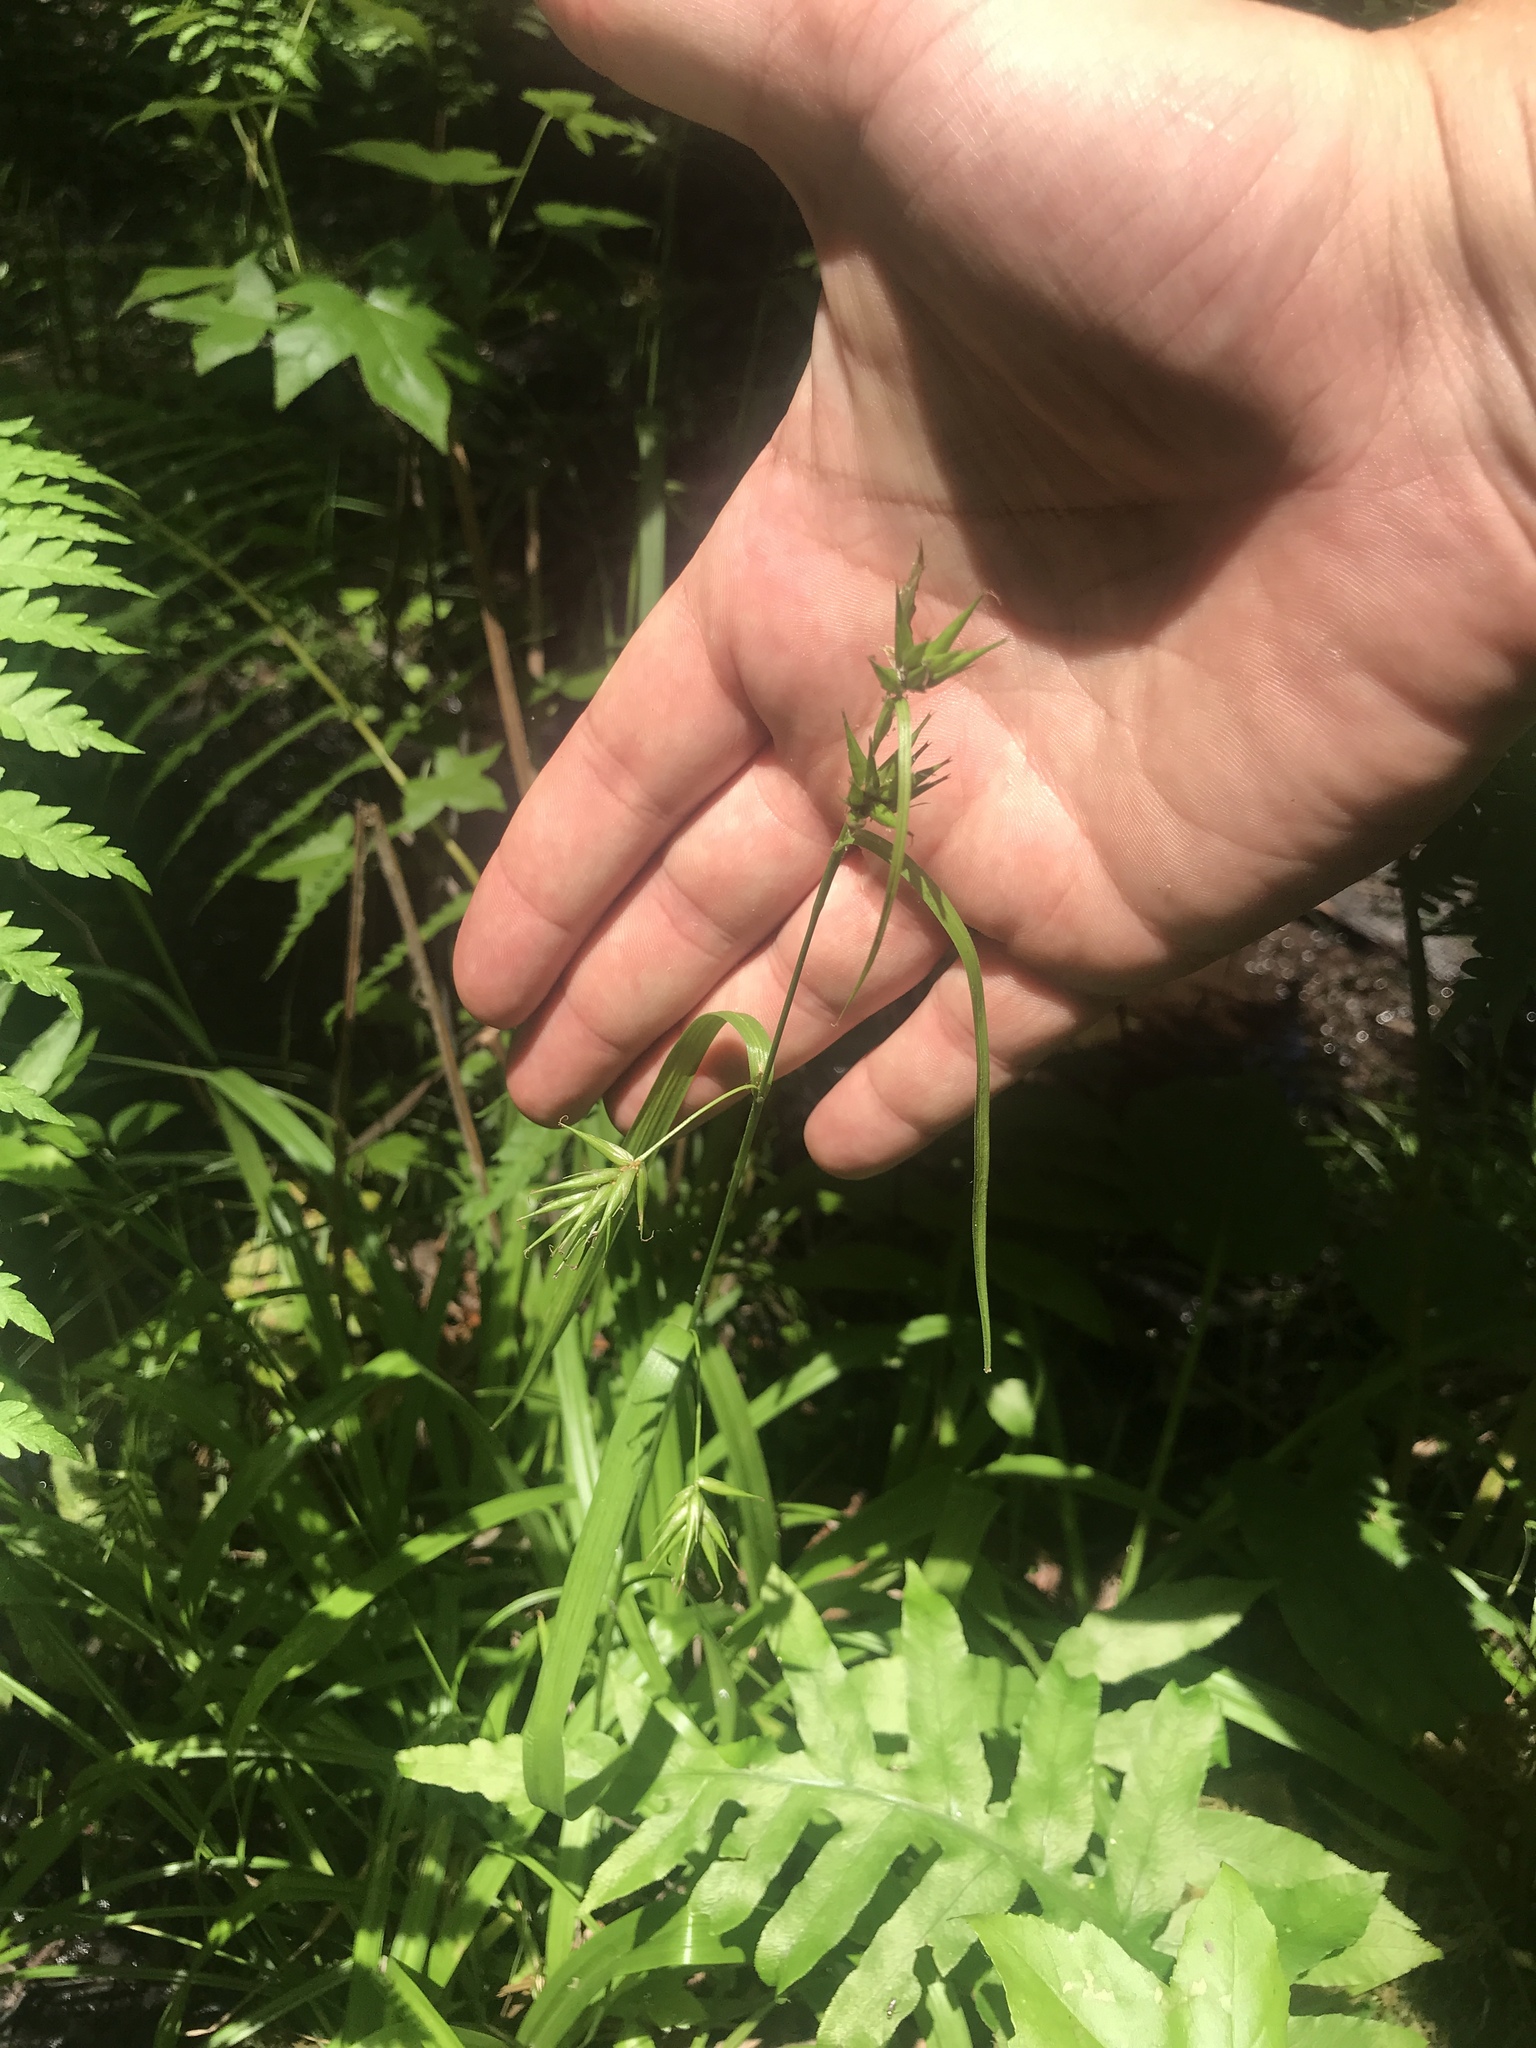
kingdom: Plantae
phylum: Tracheophyta
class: Liliopsida
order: Poales
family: Cyperaceae
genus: Carex
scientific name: Carex folliculata
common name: Northern long sedge
